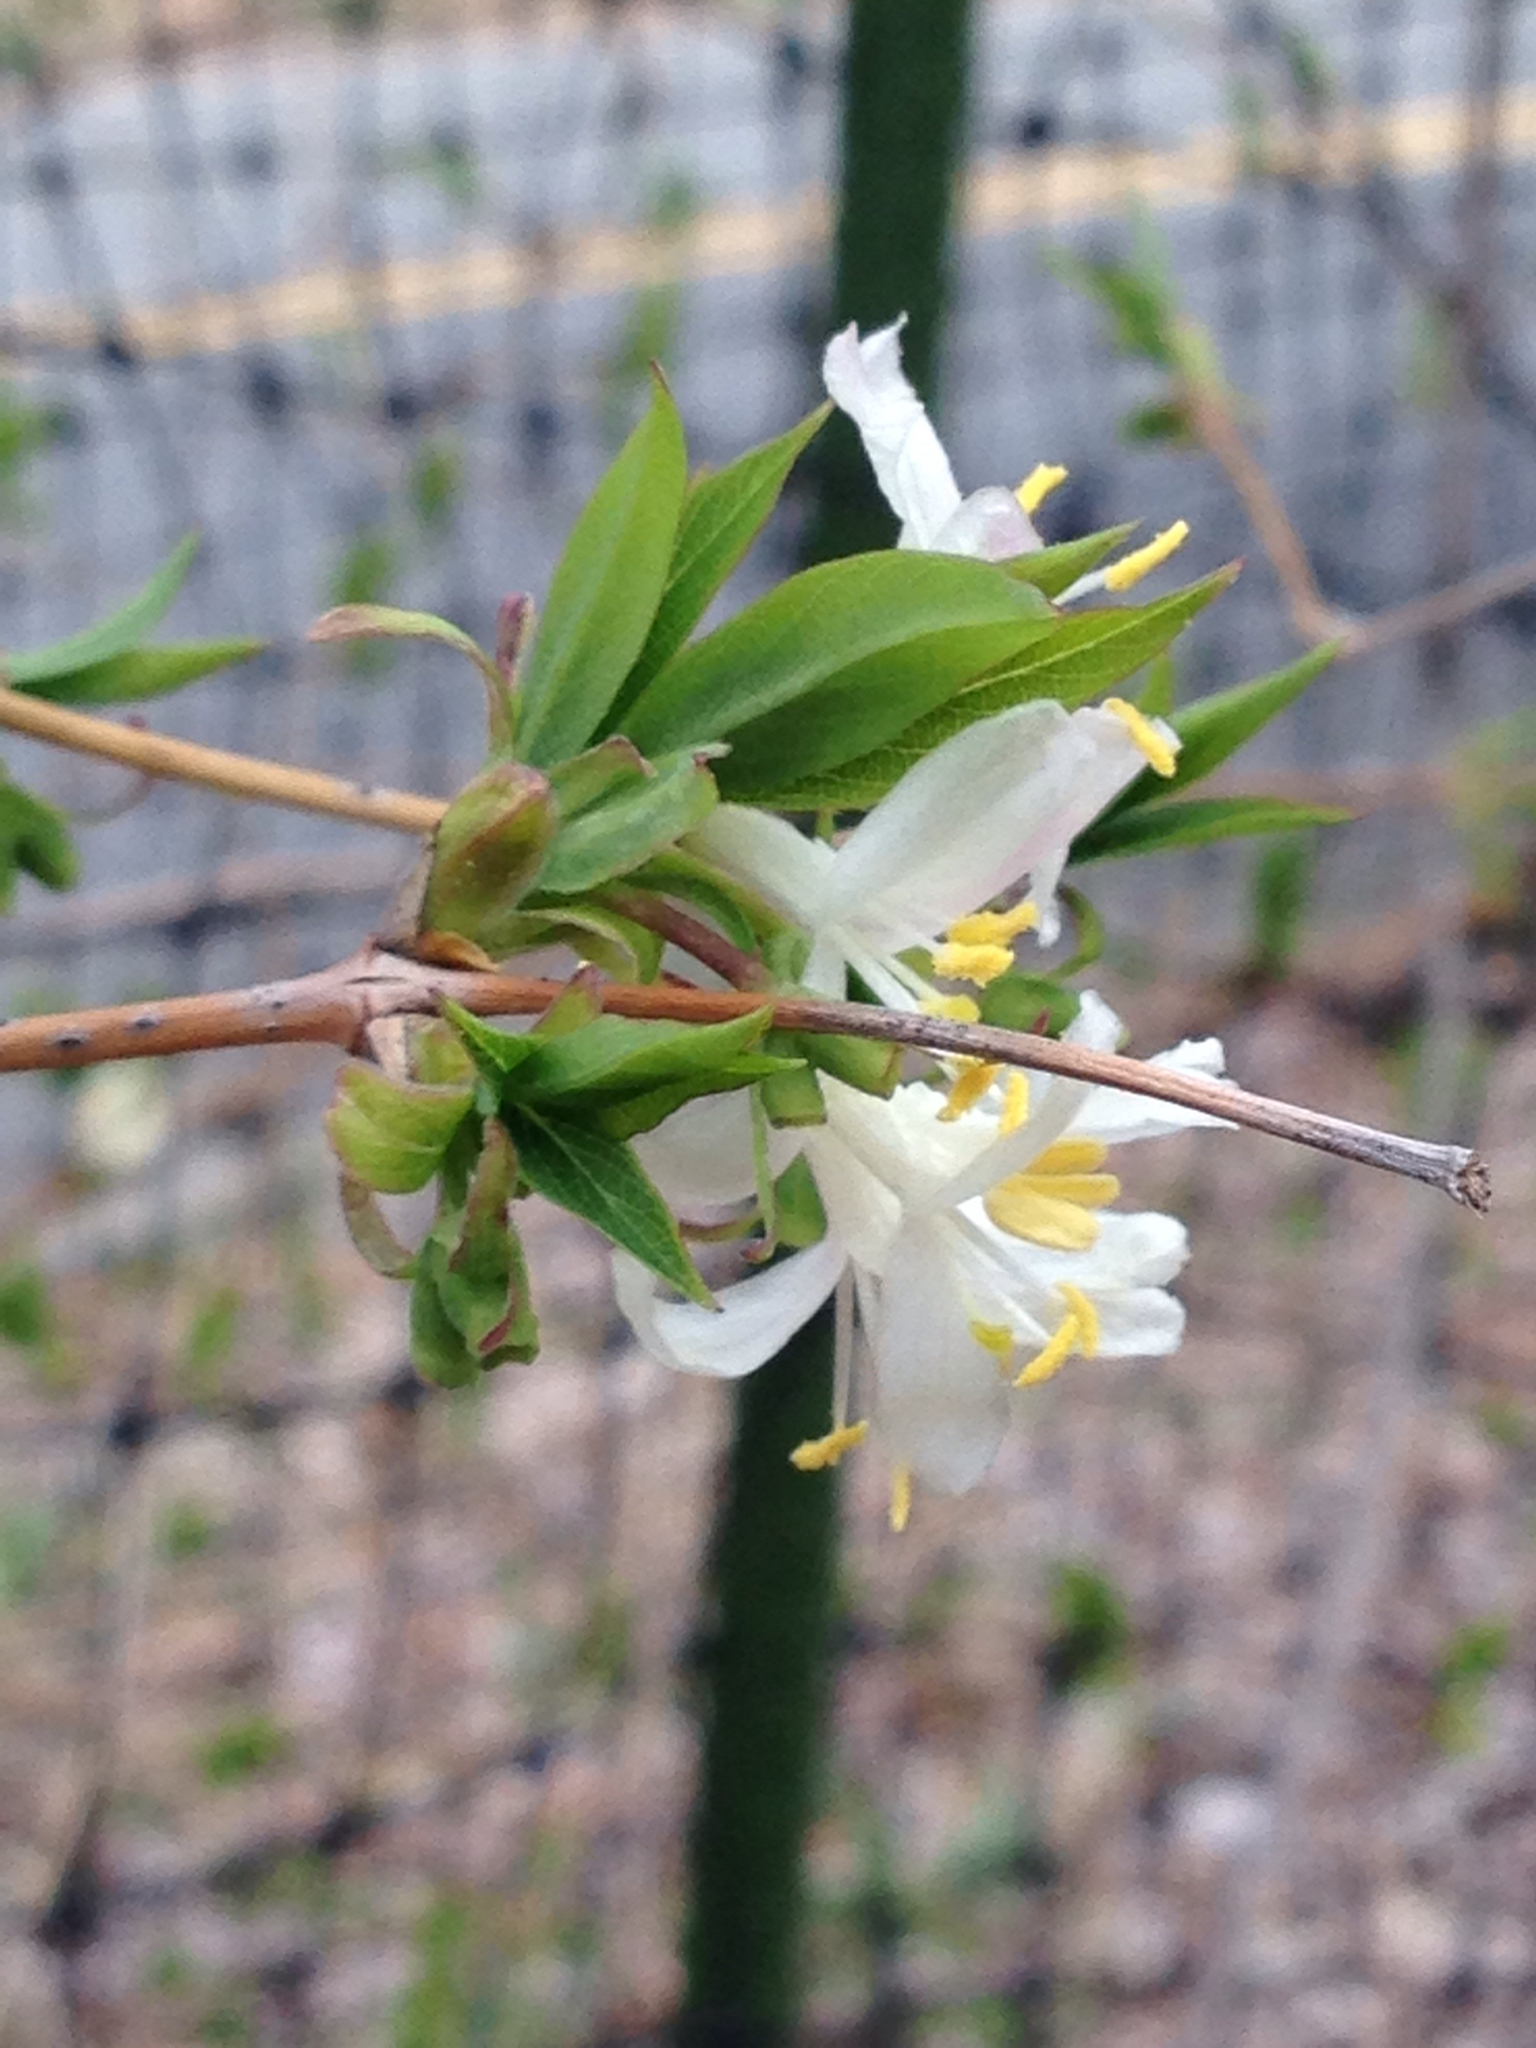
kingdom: Plantae
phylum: Tracheophyta
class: Magnoliopsida
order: Dipsacales
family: Caprifoliaceae
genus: Lonicera
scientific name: Lonicera fragrantissima
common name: Fragrant honeysuckle
